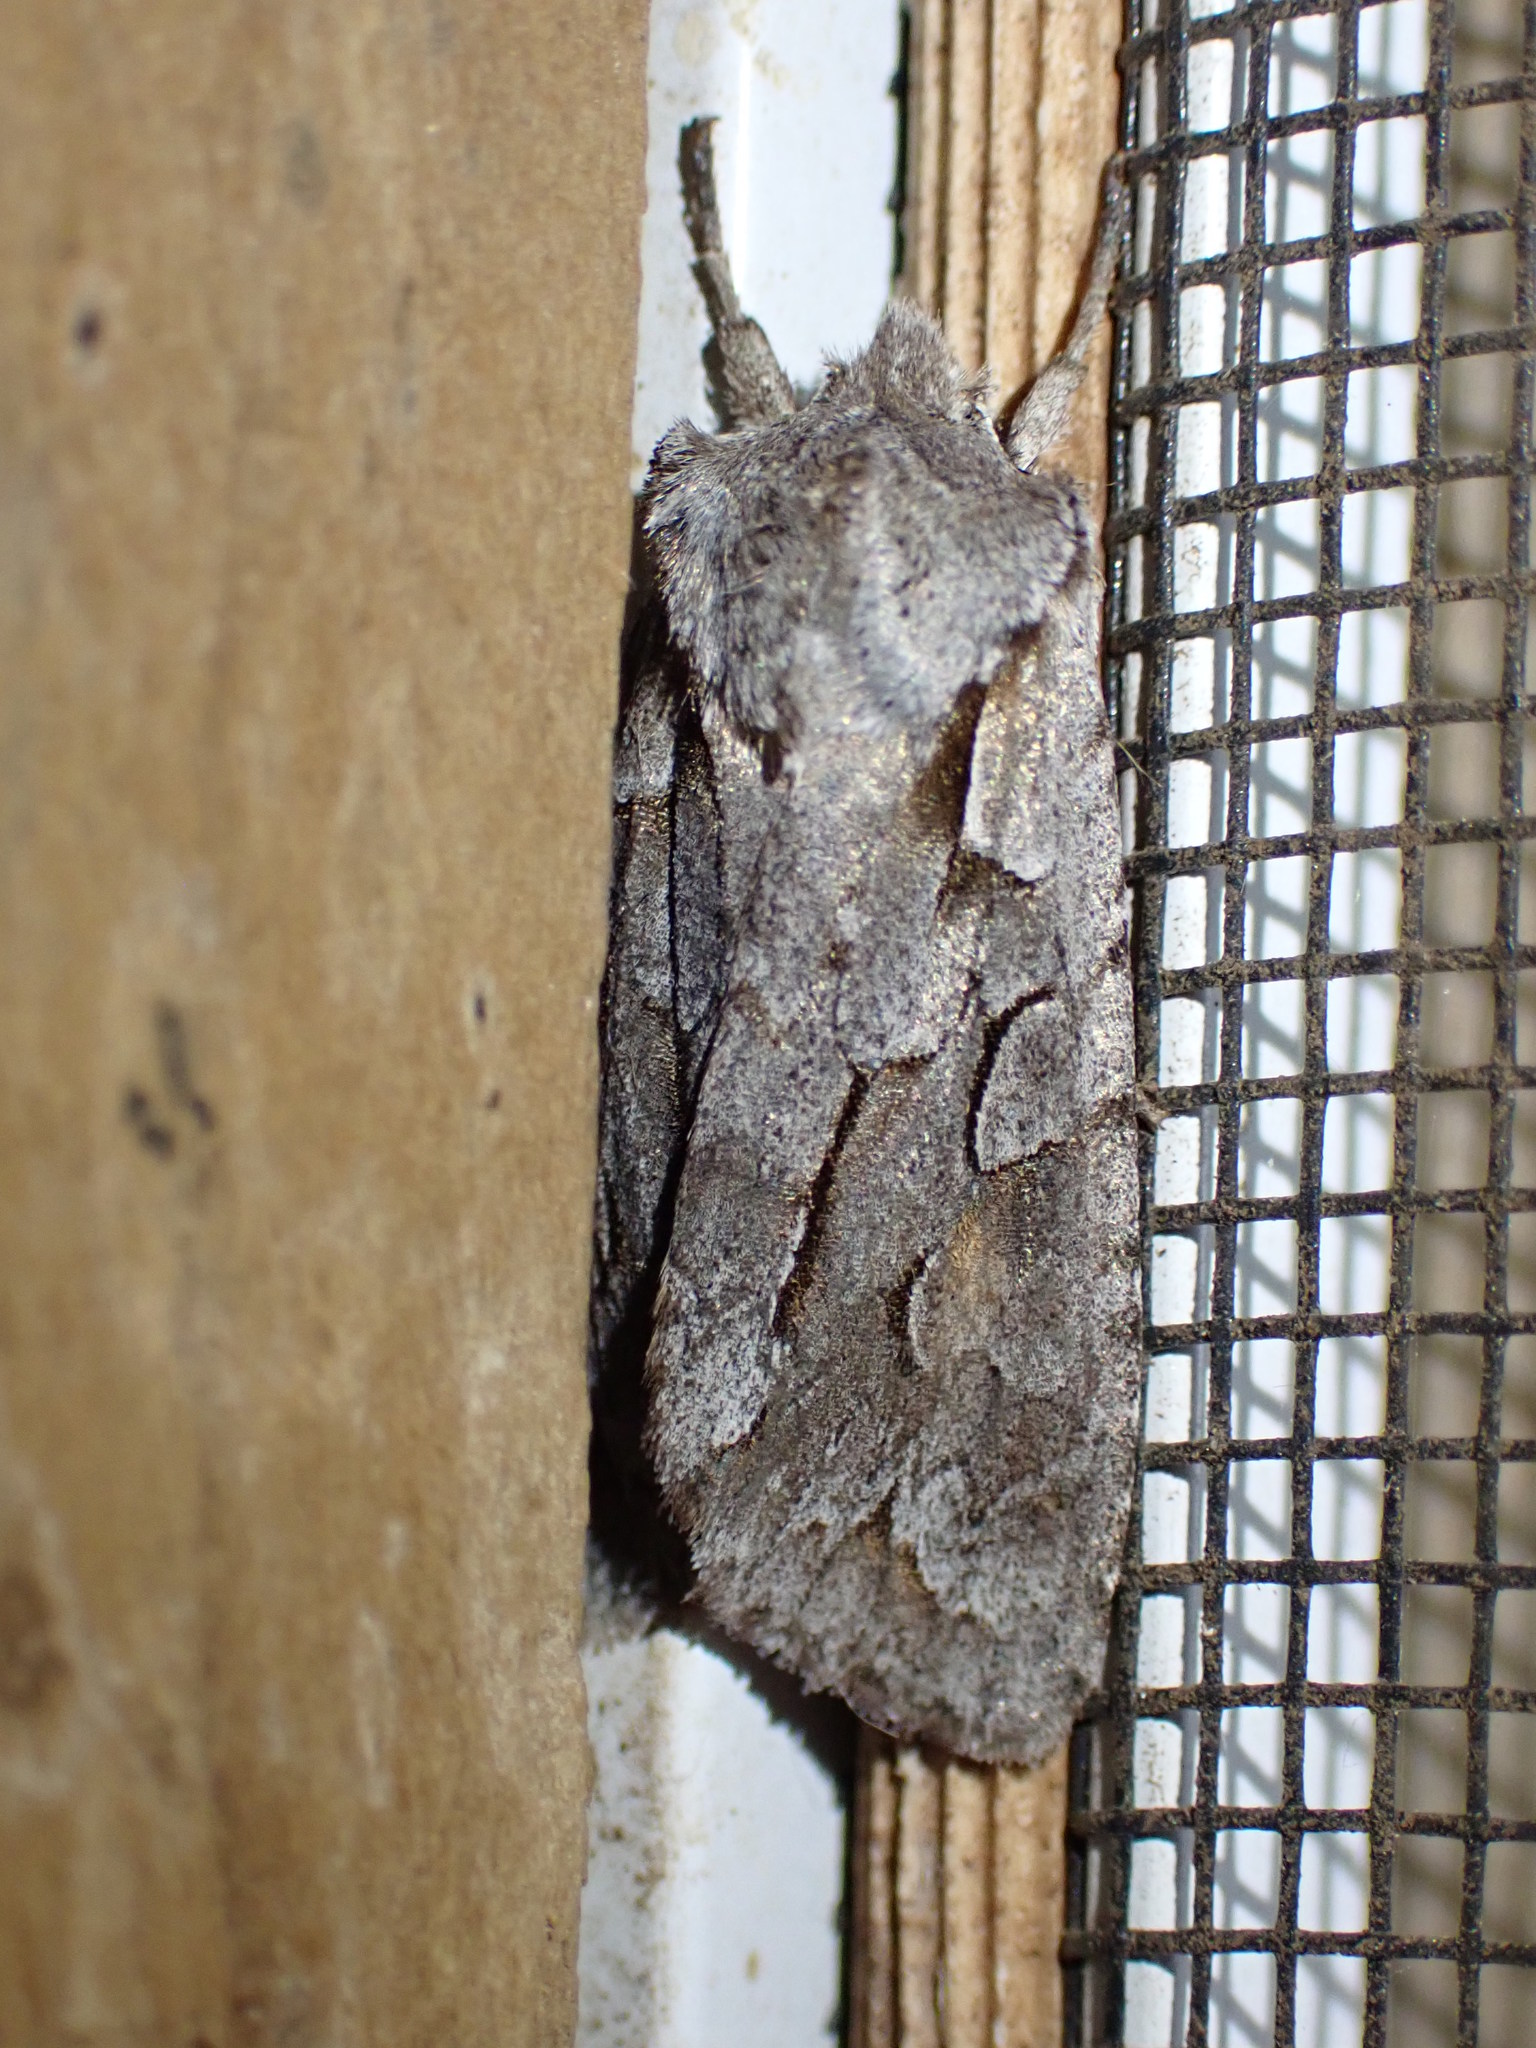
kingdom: Animalia
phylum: Arthropoda
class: Insecta
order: Lepidoptera
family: Noctuidae
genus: Lithophane
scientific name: Lithophane thaxteri
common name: Nonconformist
